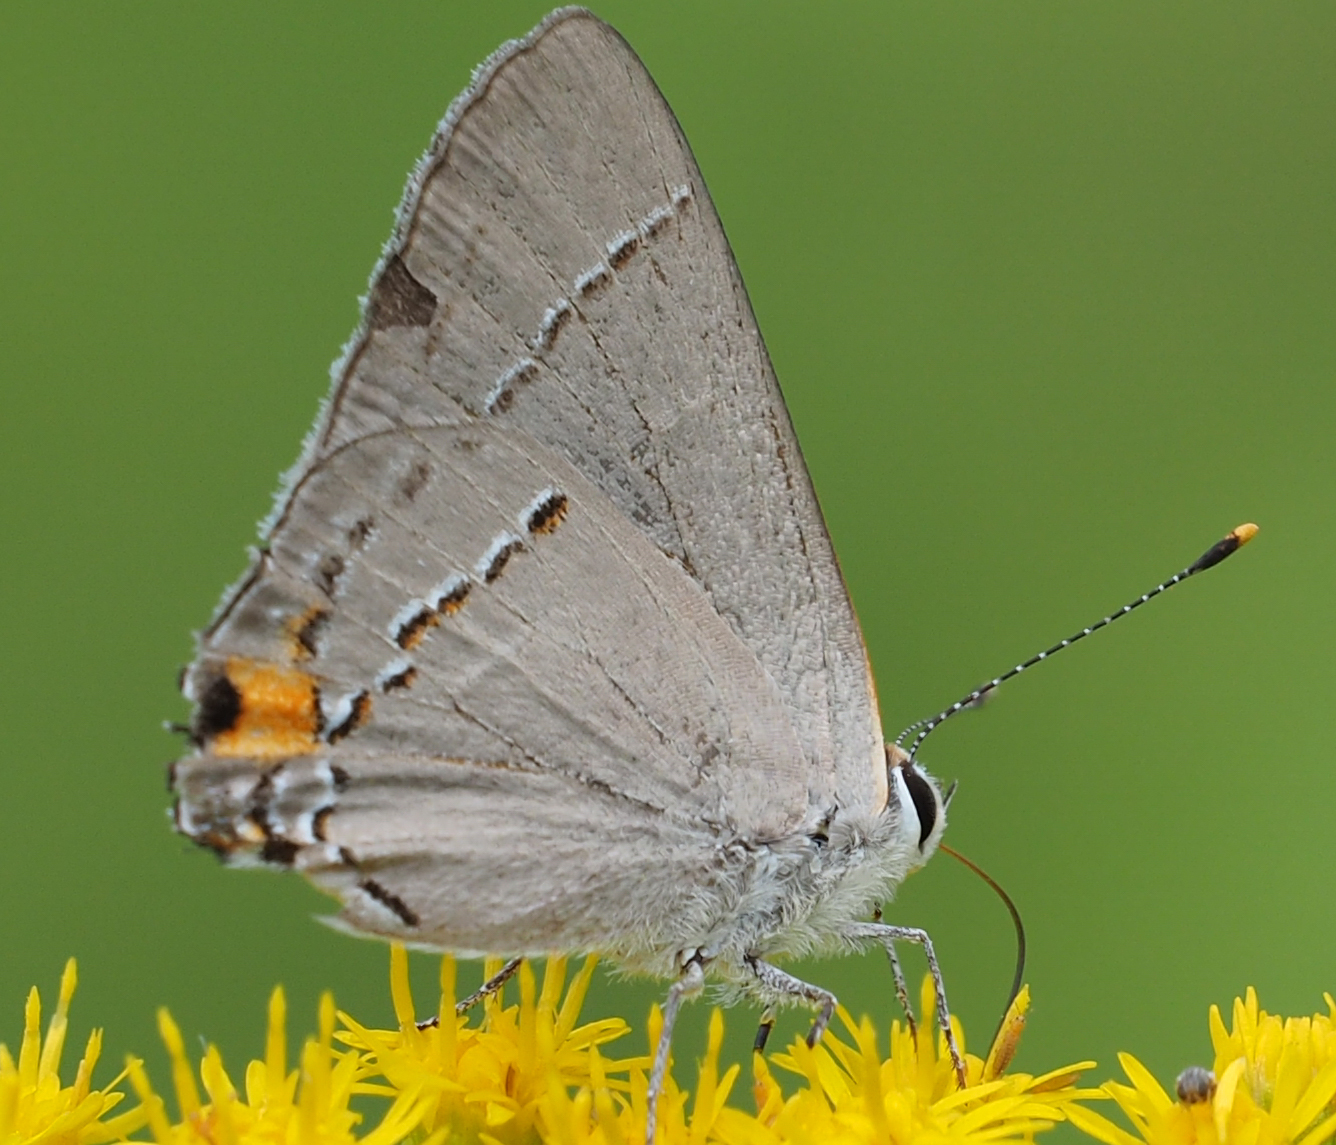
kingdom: Animalia
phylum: Arthropoda
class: Insecta
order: Lepidoptera
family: Lycaenidae
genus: Strymon
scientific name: Strymon melinus
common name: Gray hairstreak
